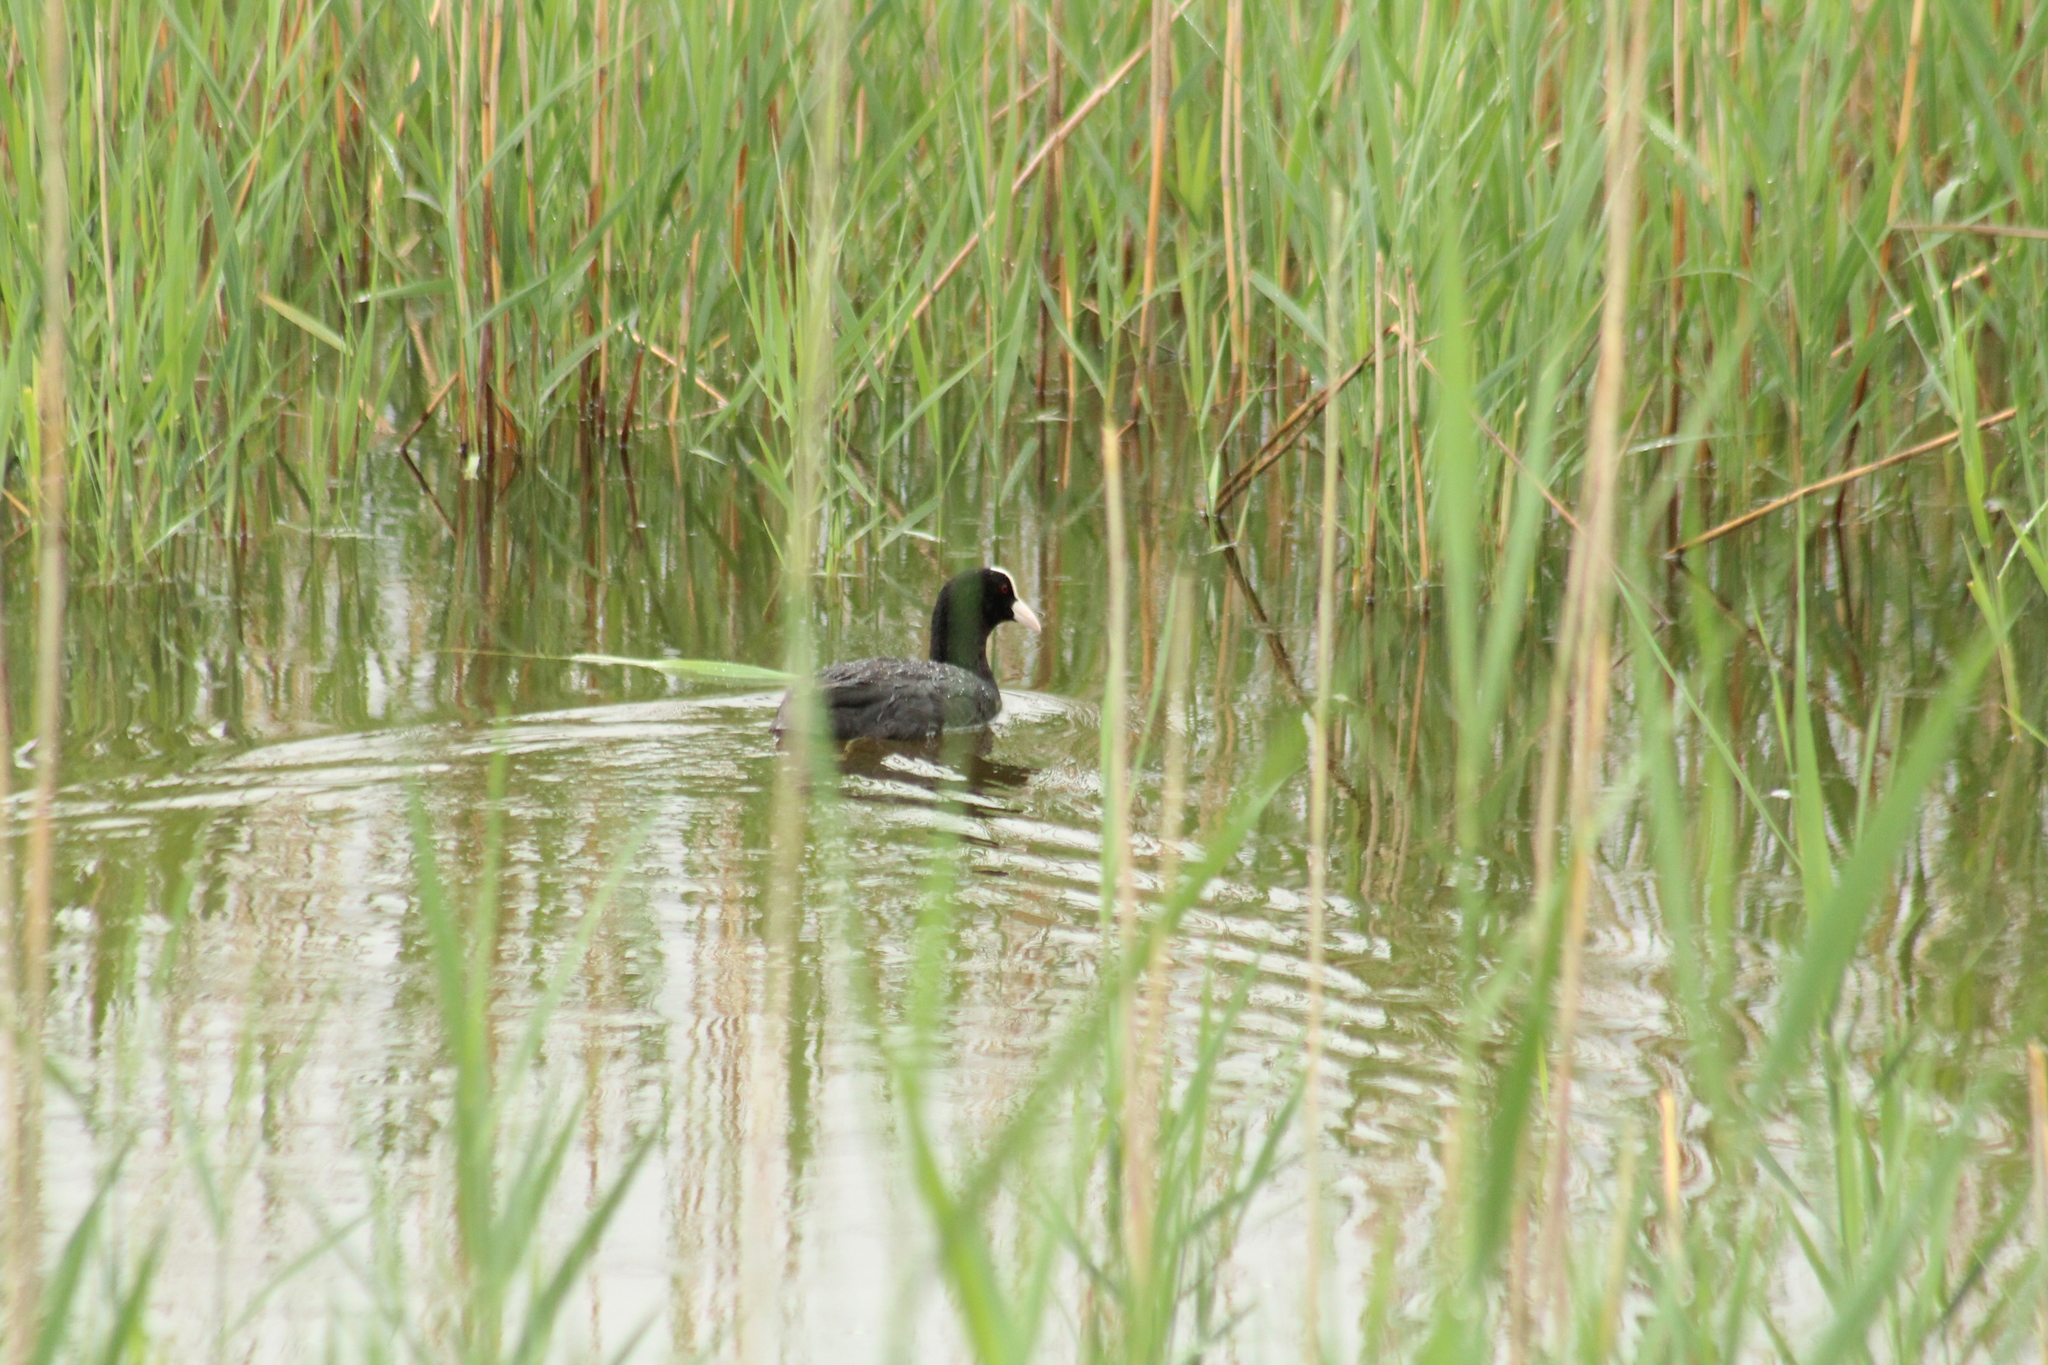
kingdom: Animalia
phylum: Chordata
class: Aves
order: Gruiformes
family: Rallidae
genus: Fulica
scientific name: Fulica atra
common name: Eurasian coot
